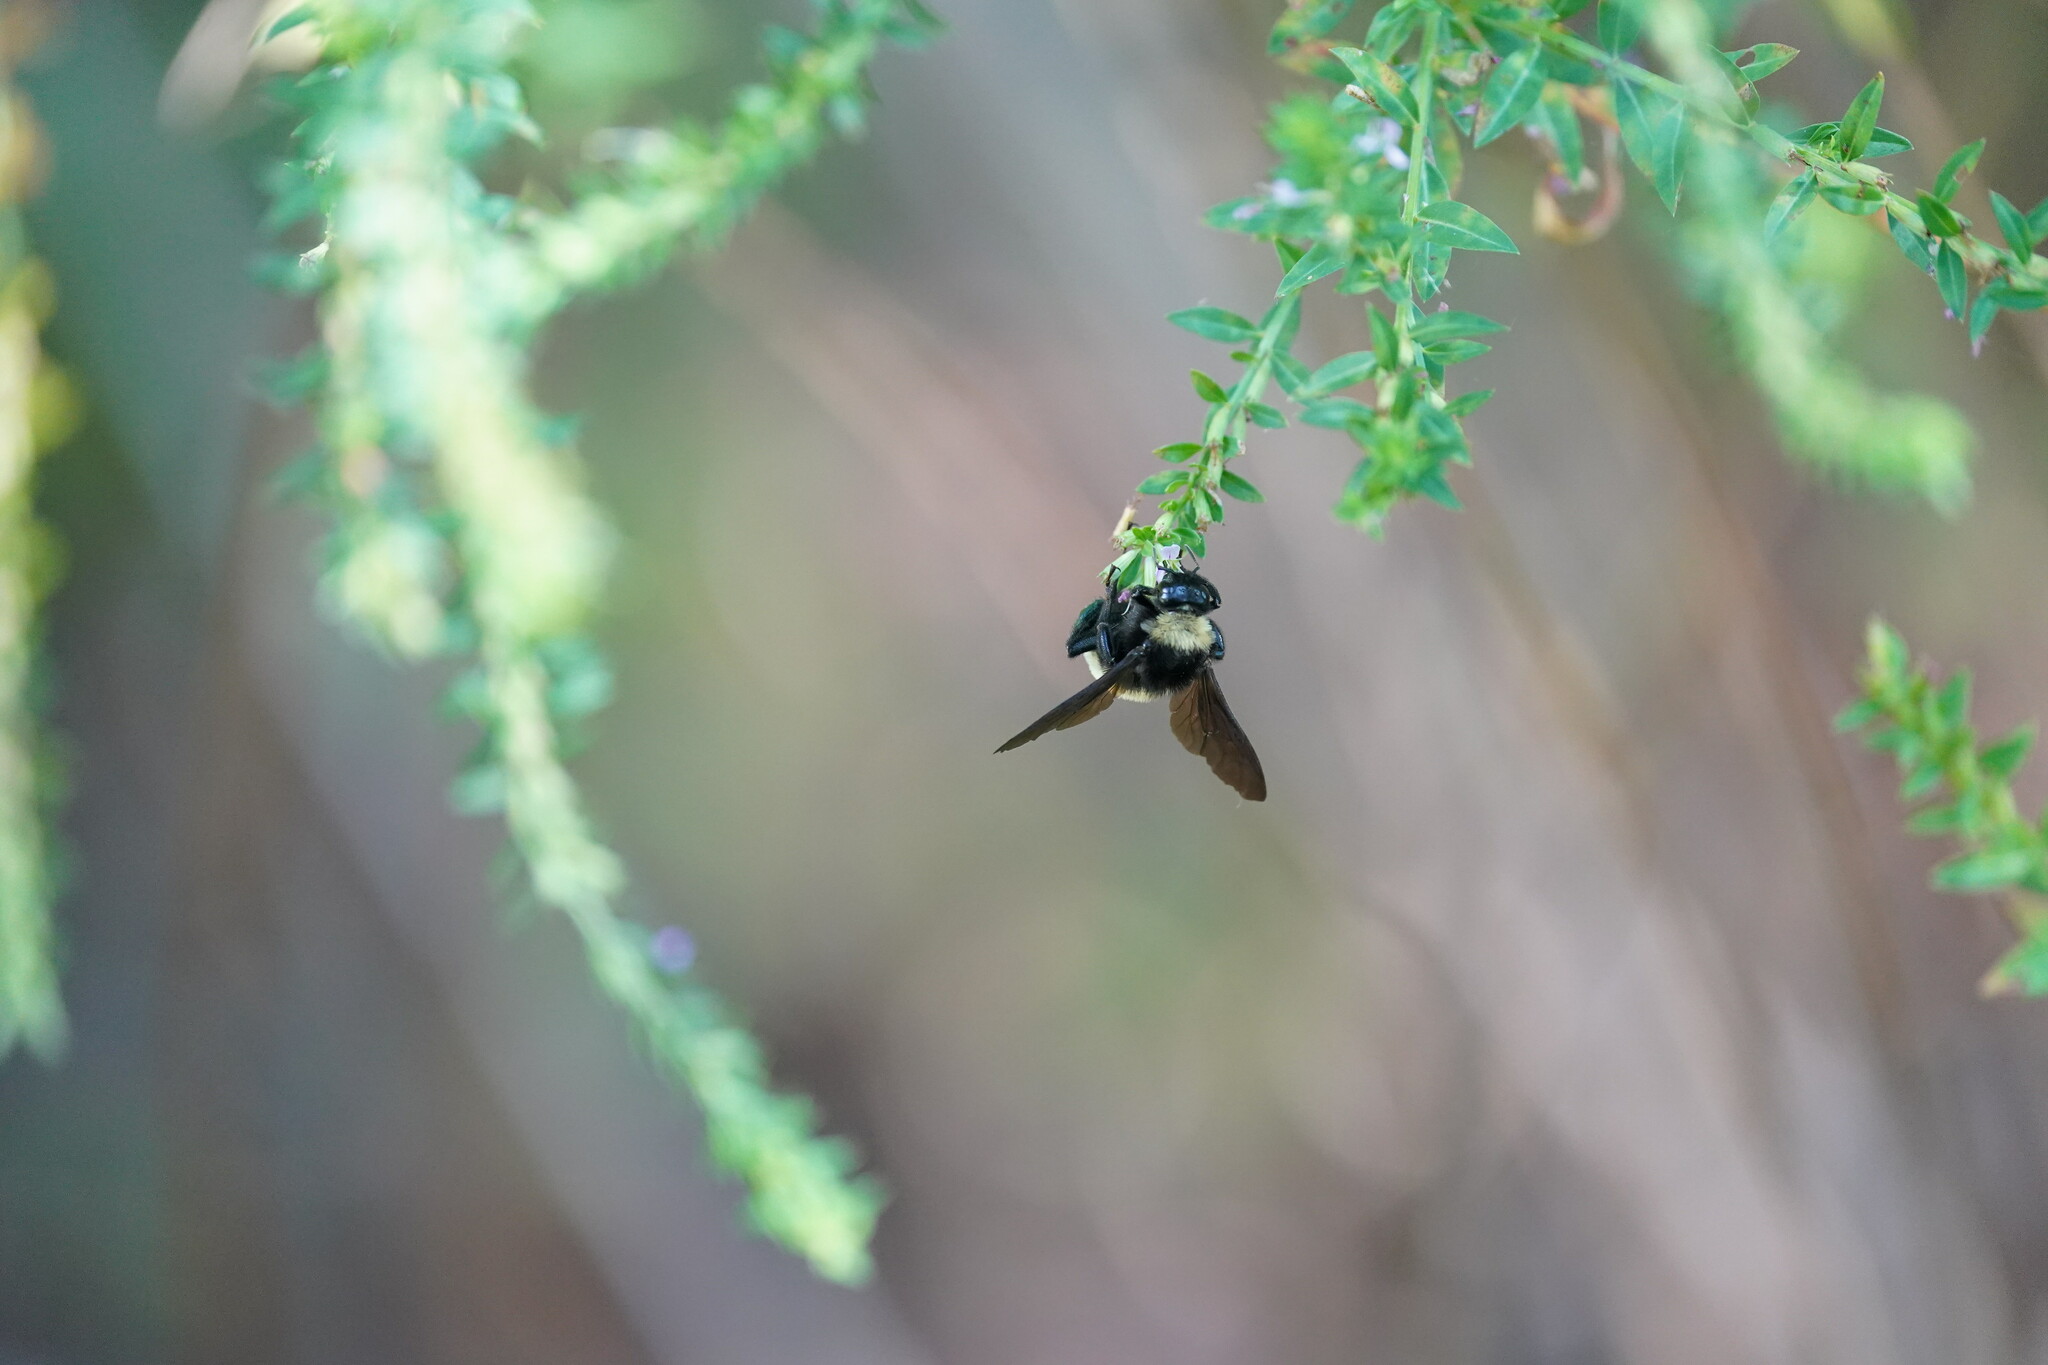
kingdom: Animalia
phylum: Arthropoda
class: Insecta
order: Hymenoptera
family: Apidae
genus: Bombus
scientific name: Bombus pensylvanicus
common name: Bumble bee
